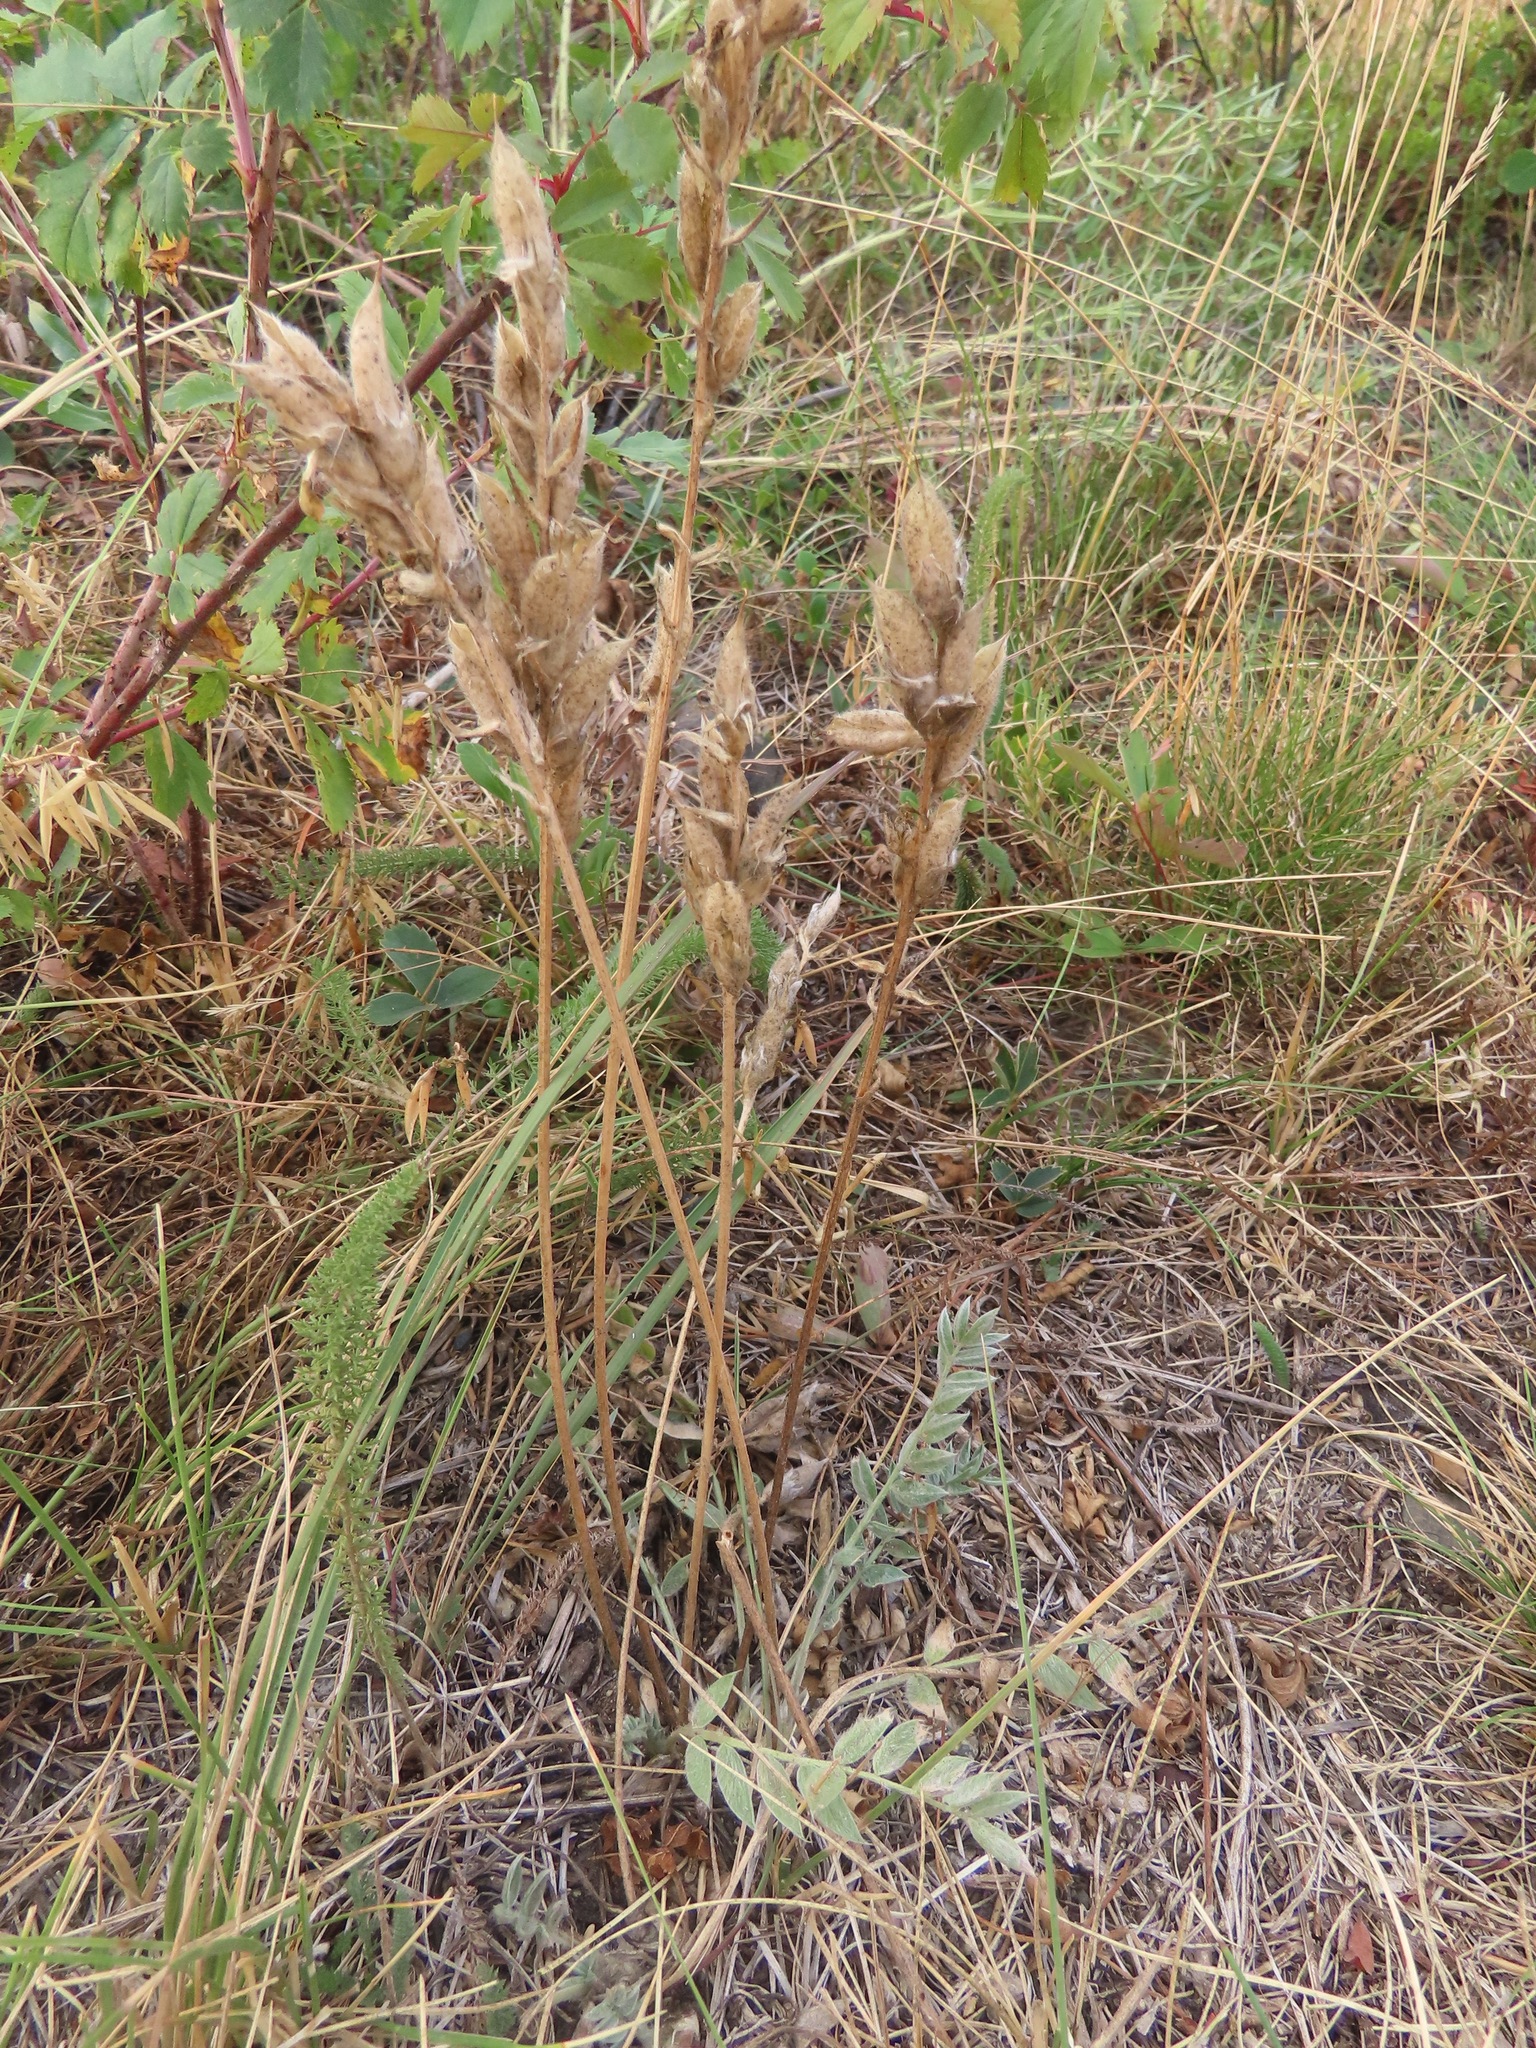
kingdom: Plantae
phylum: Tracheophyta
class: Magnoliopsida
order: Fabales
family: Fabaceae
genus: Oxytropis
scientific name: Oxytropis sericea
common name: Silky locoweed
